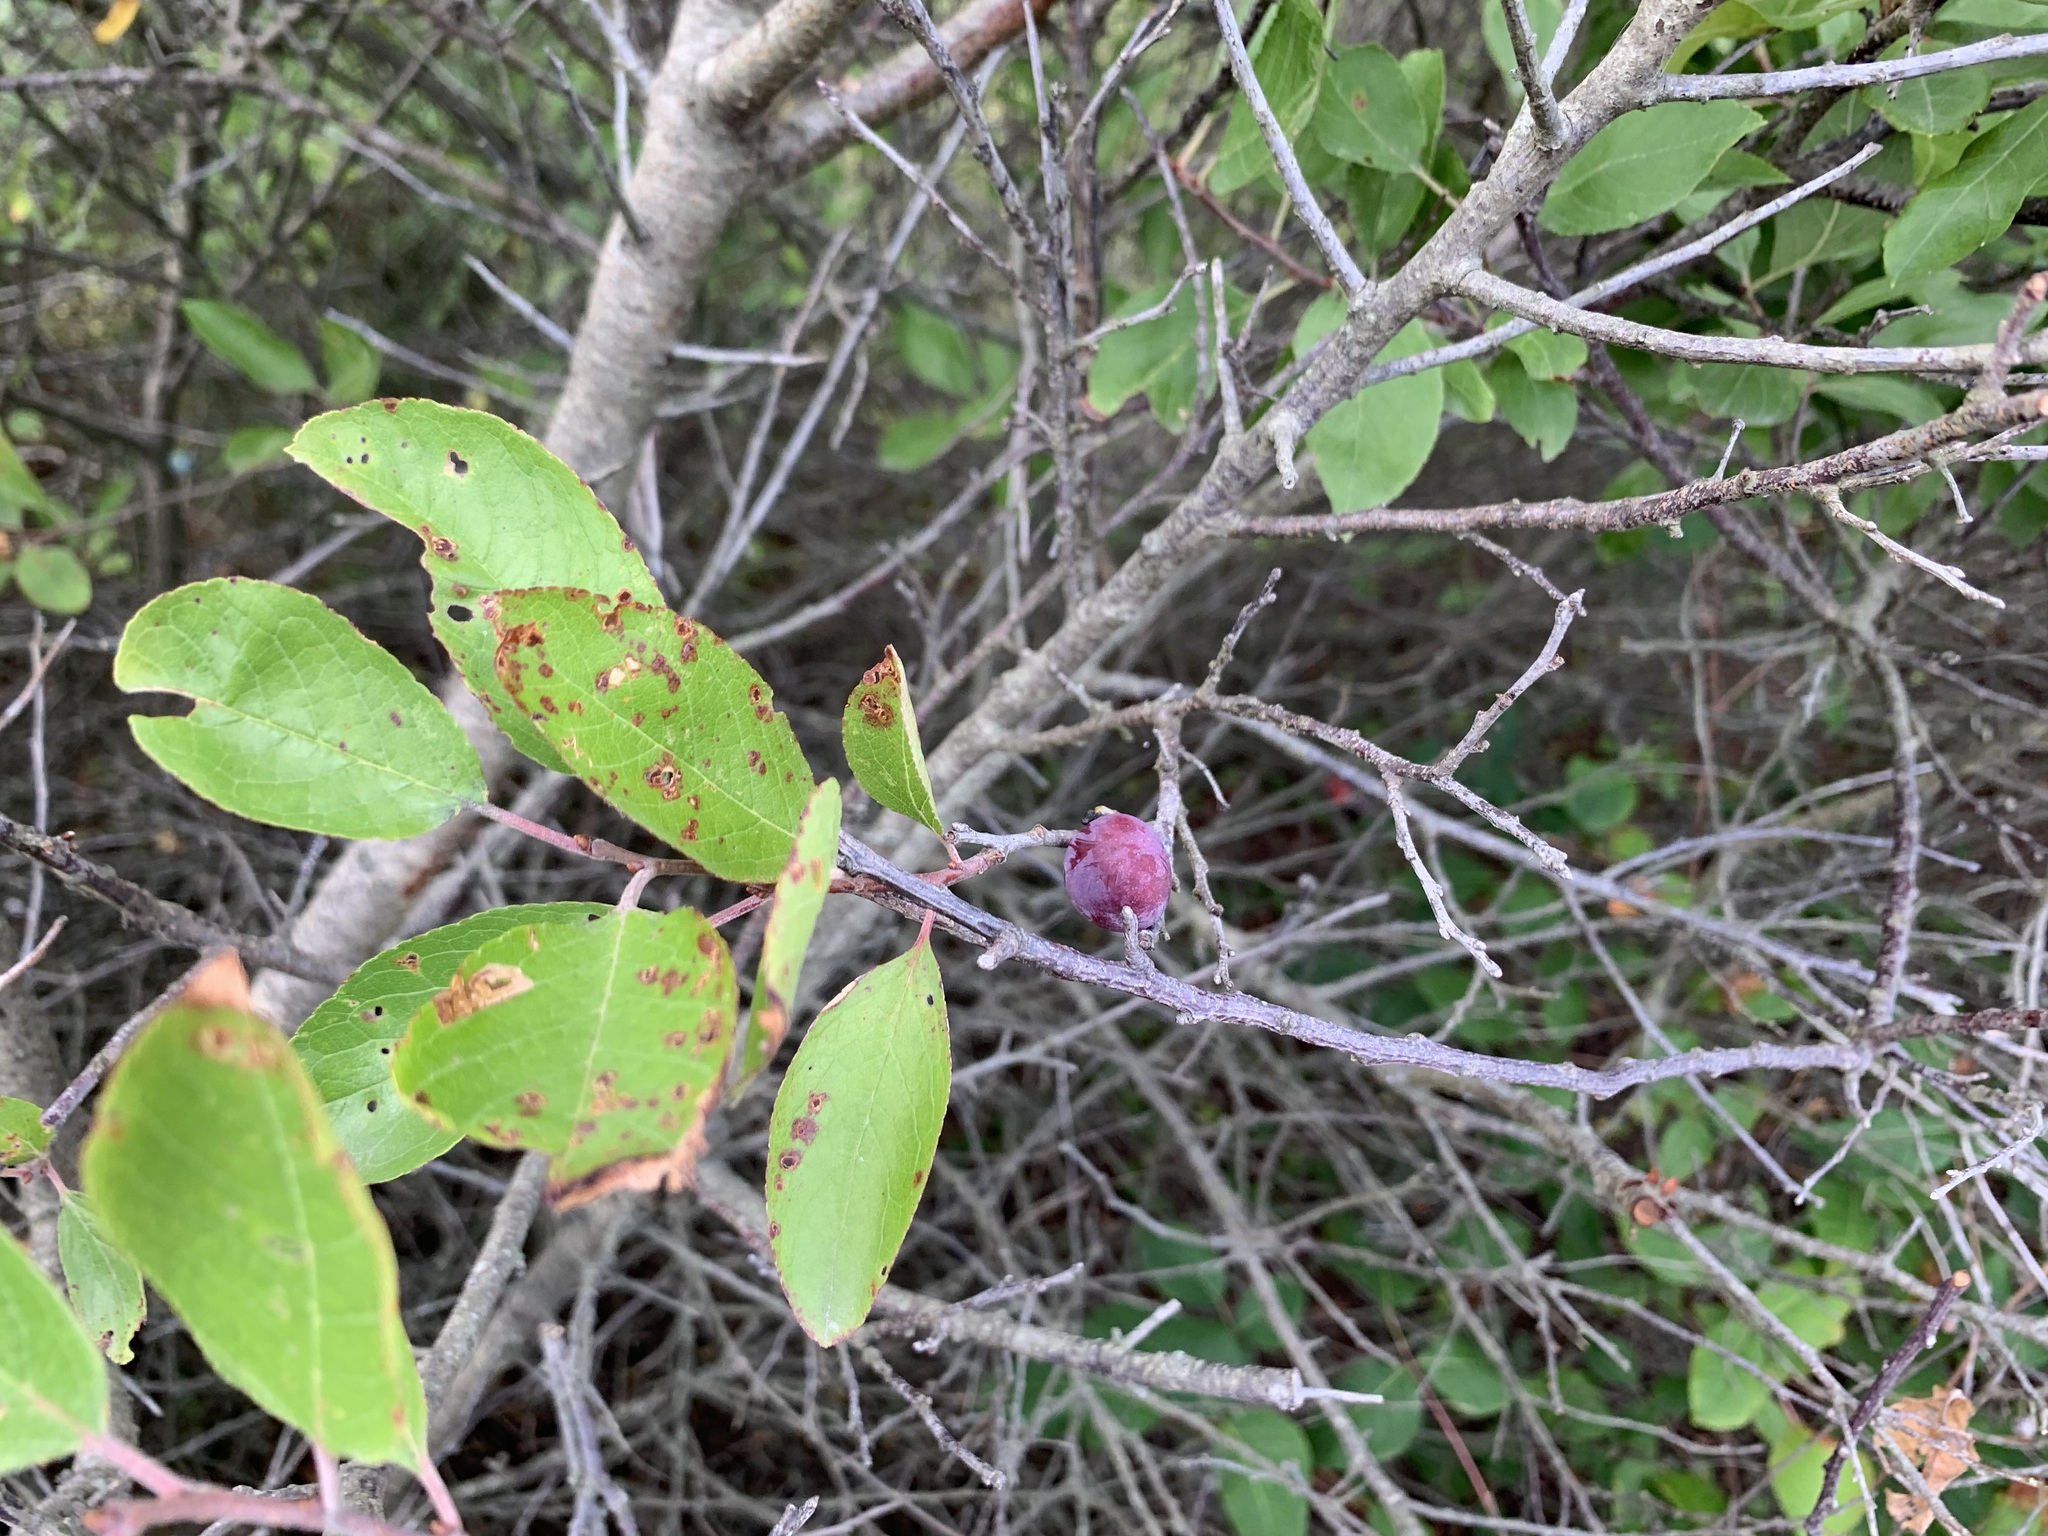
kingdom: Plantae
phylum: Tracheophyta
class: Magnoliopsida
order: Rosales
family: Rosaceae
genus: Prunus
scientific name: Prunus maritima
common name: Beach plum
